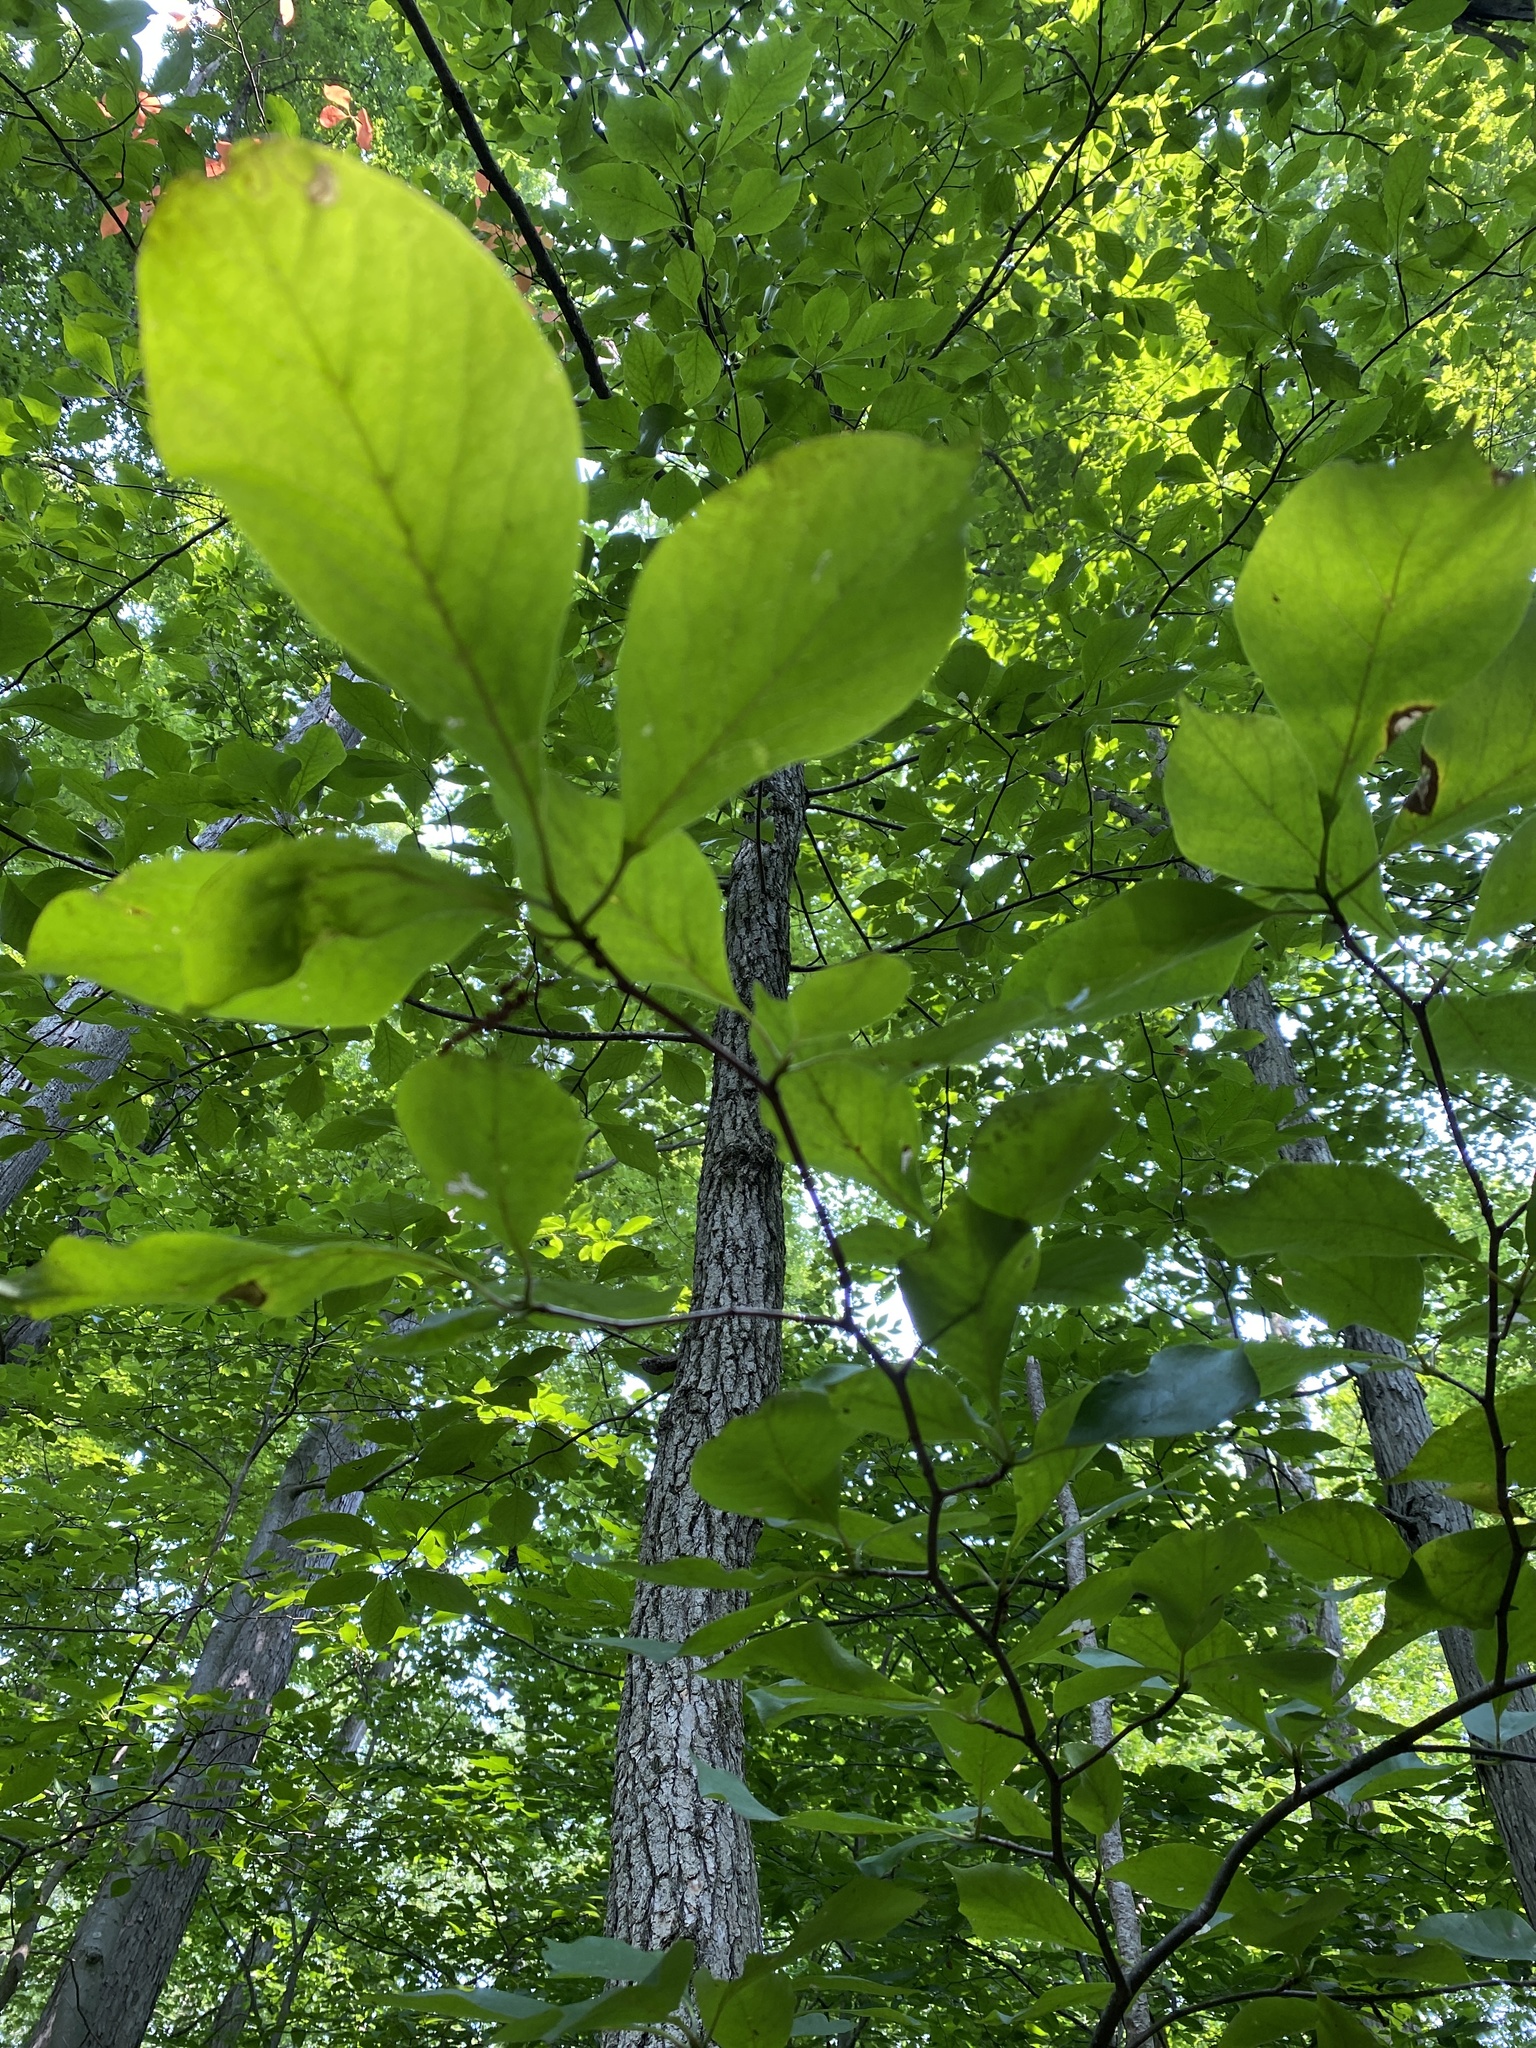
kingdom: Plantae
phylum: Tracheophyta
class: Magnoliopsida
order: Cornales
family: Nyssaceae
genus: Nyssa
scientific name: Nyssa sylvatica
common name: Black tupelo
